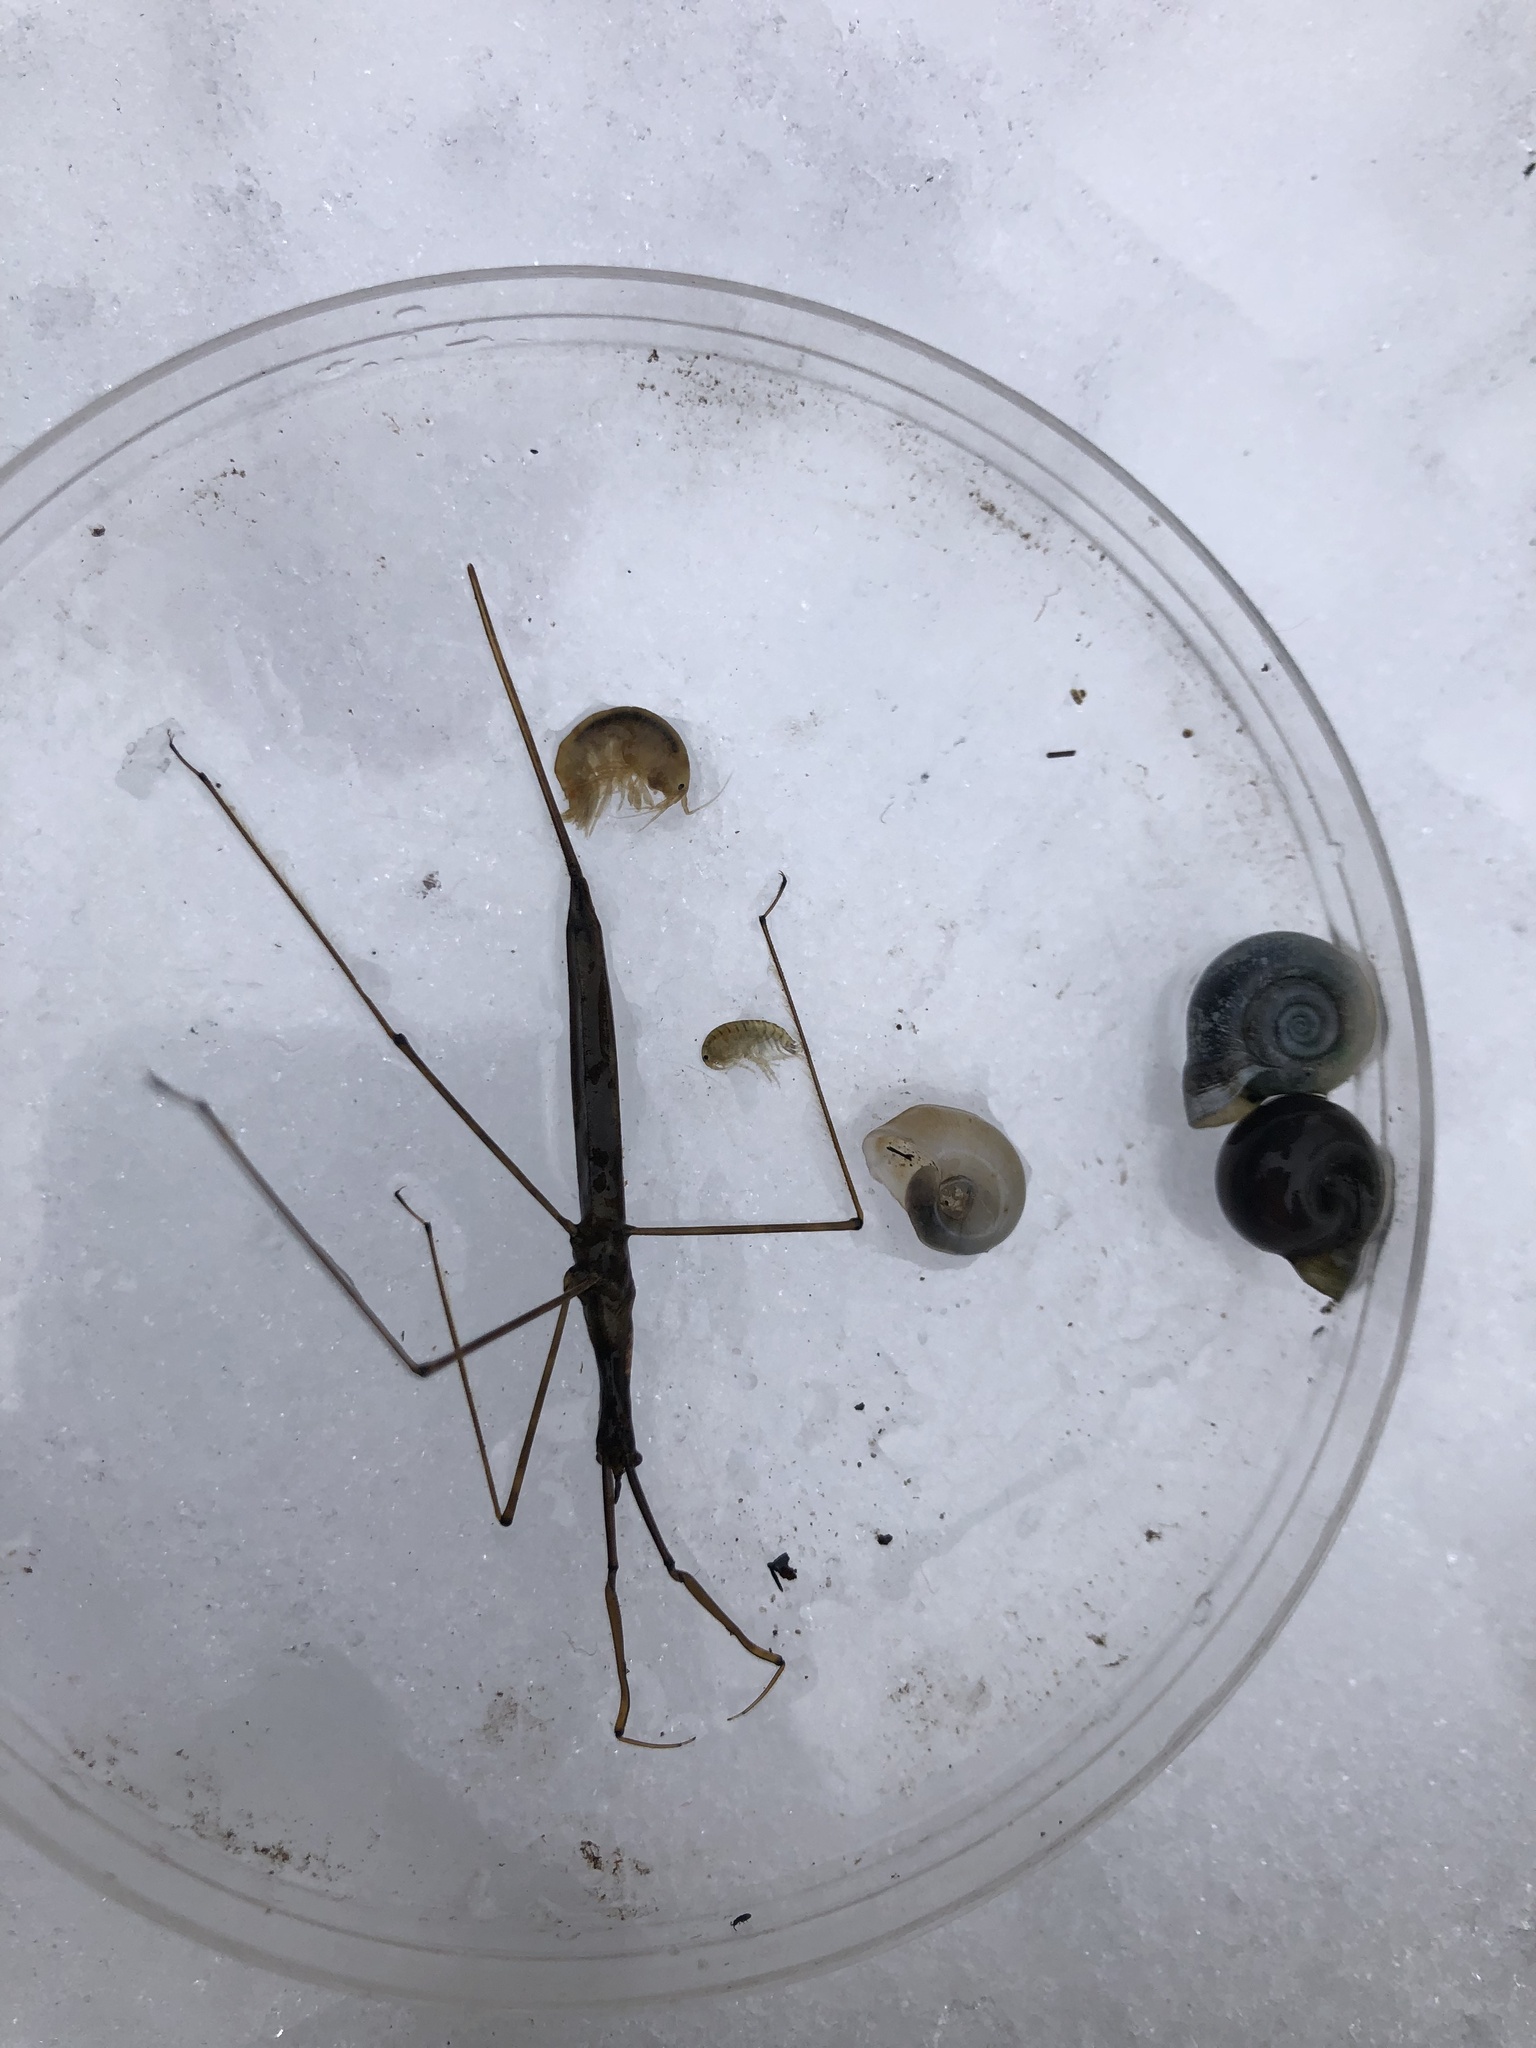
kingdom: Animalia
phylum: Arthropoda
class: Insecta
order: Hemiptera
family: Nepidae
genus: Ranatra
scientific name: Ranatra
